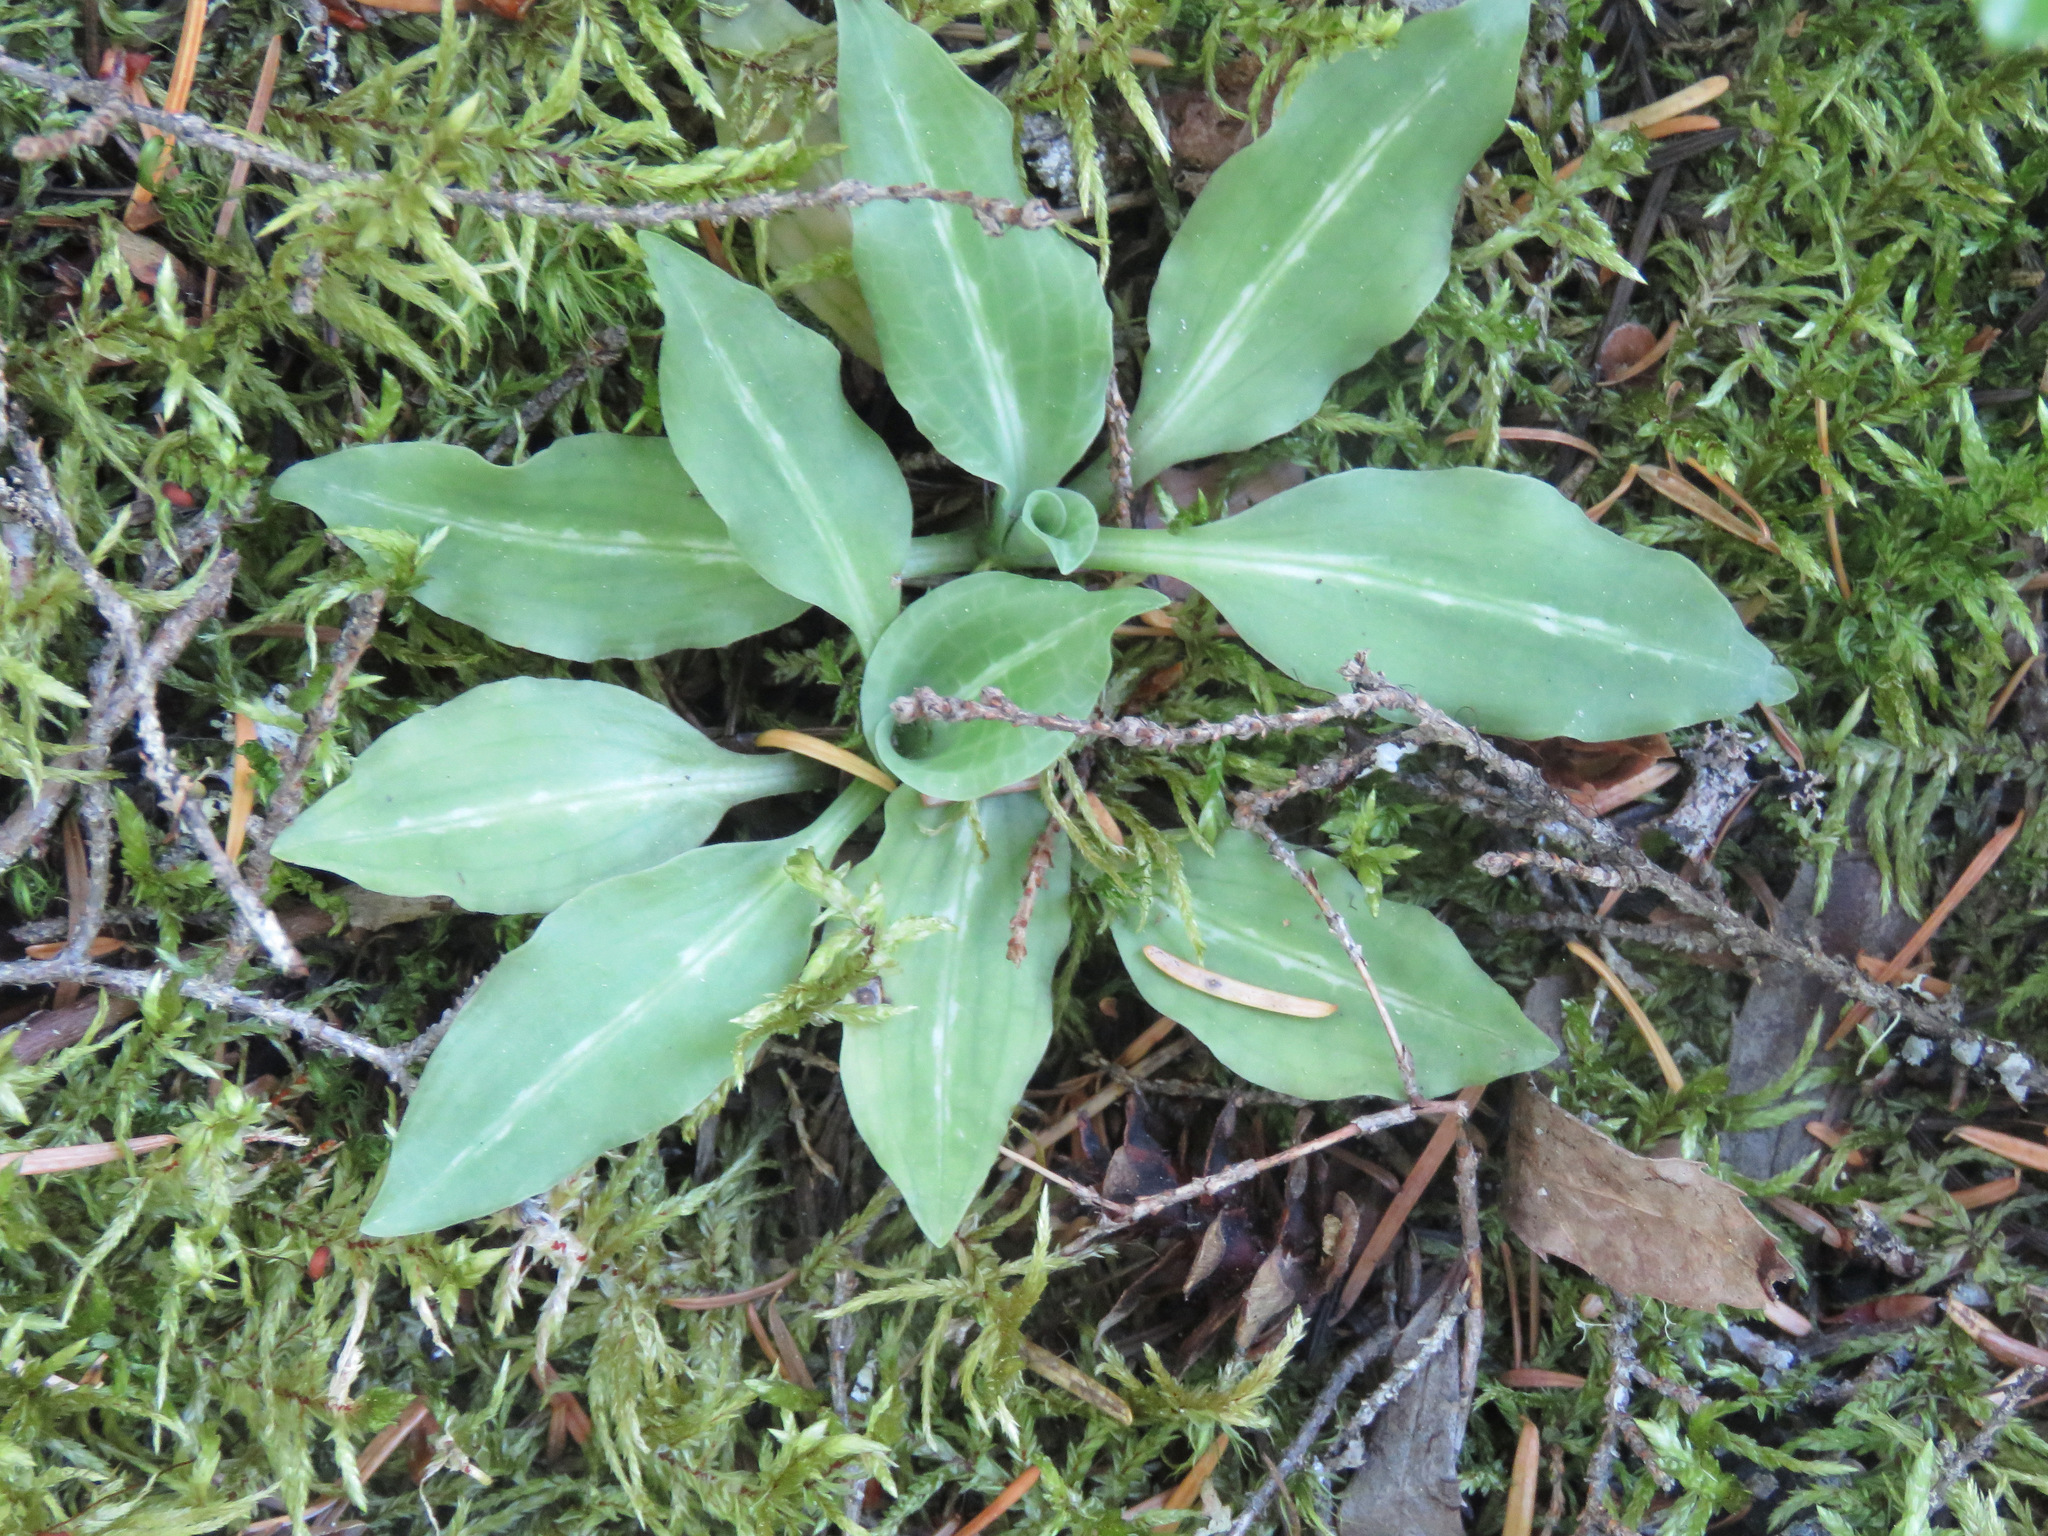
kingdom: Plantae
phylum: Tracheophyta
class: Liliopsida
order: Asparagales
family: Orchidaceae
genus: Goodyera
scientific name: Goodyera oblongifolia
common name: Giant rattlesnake-plantain
